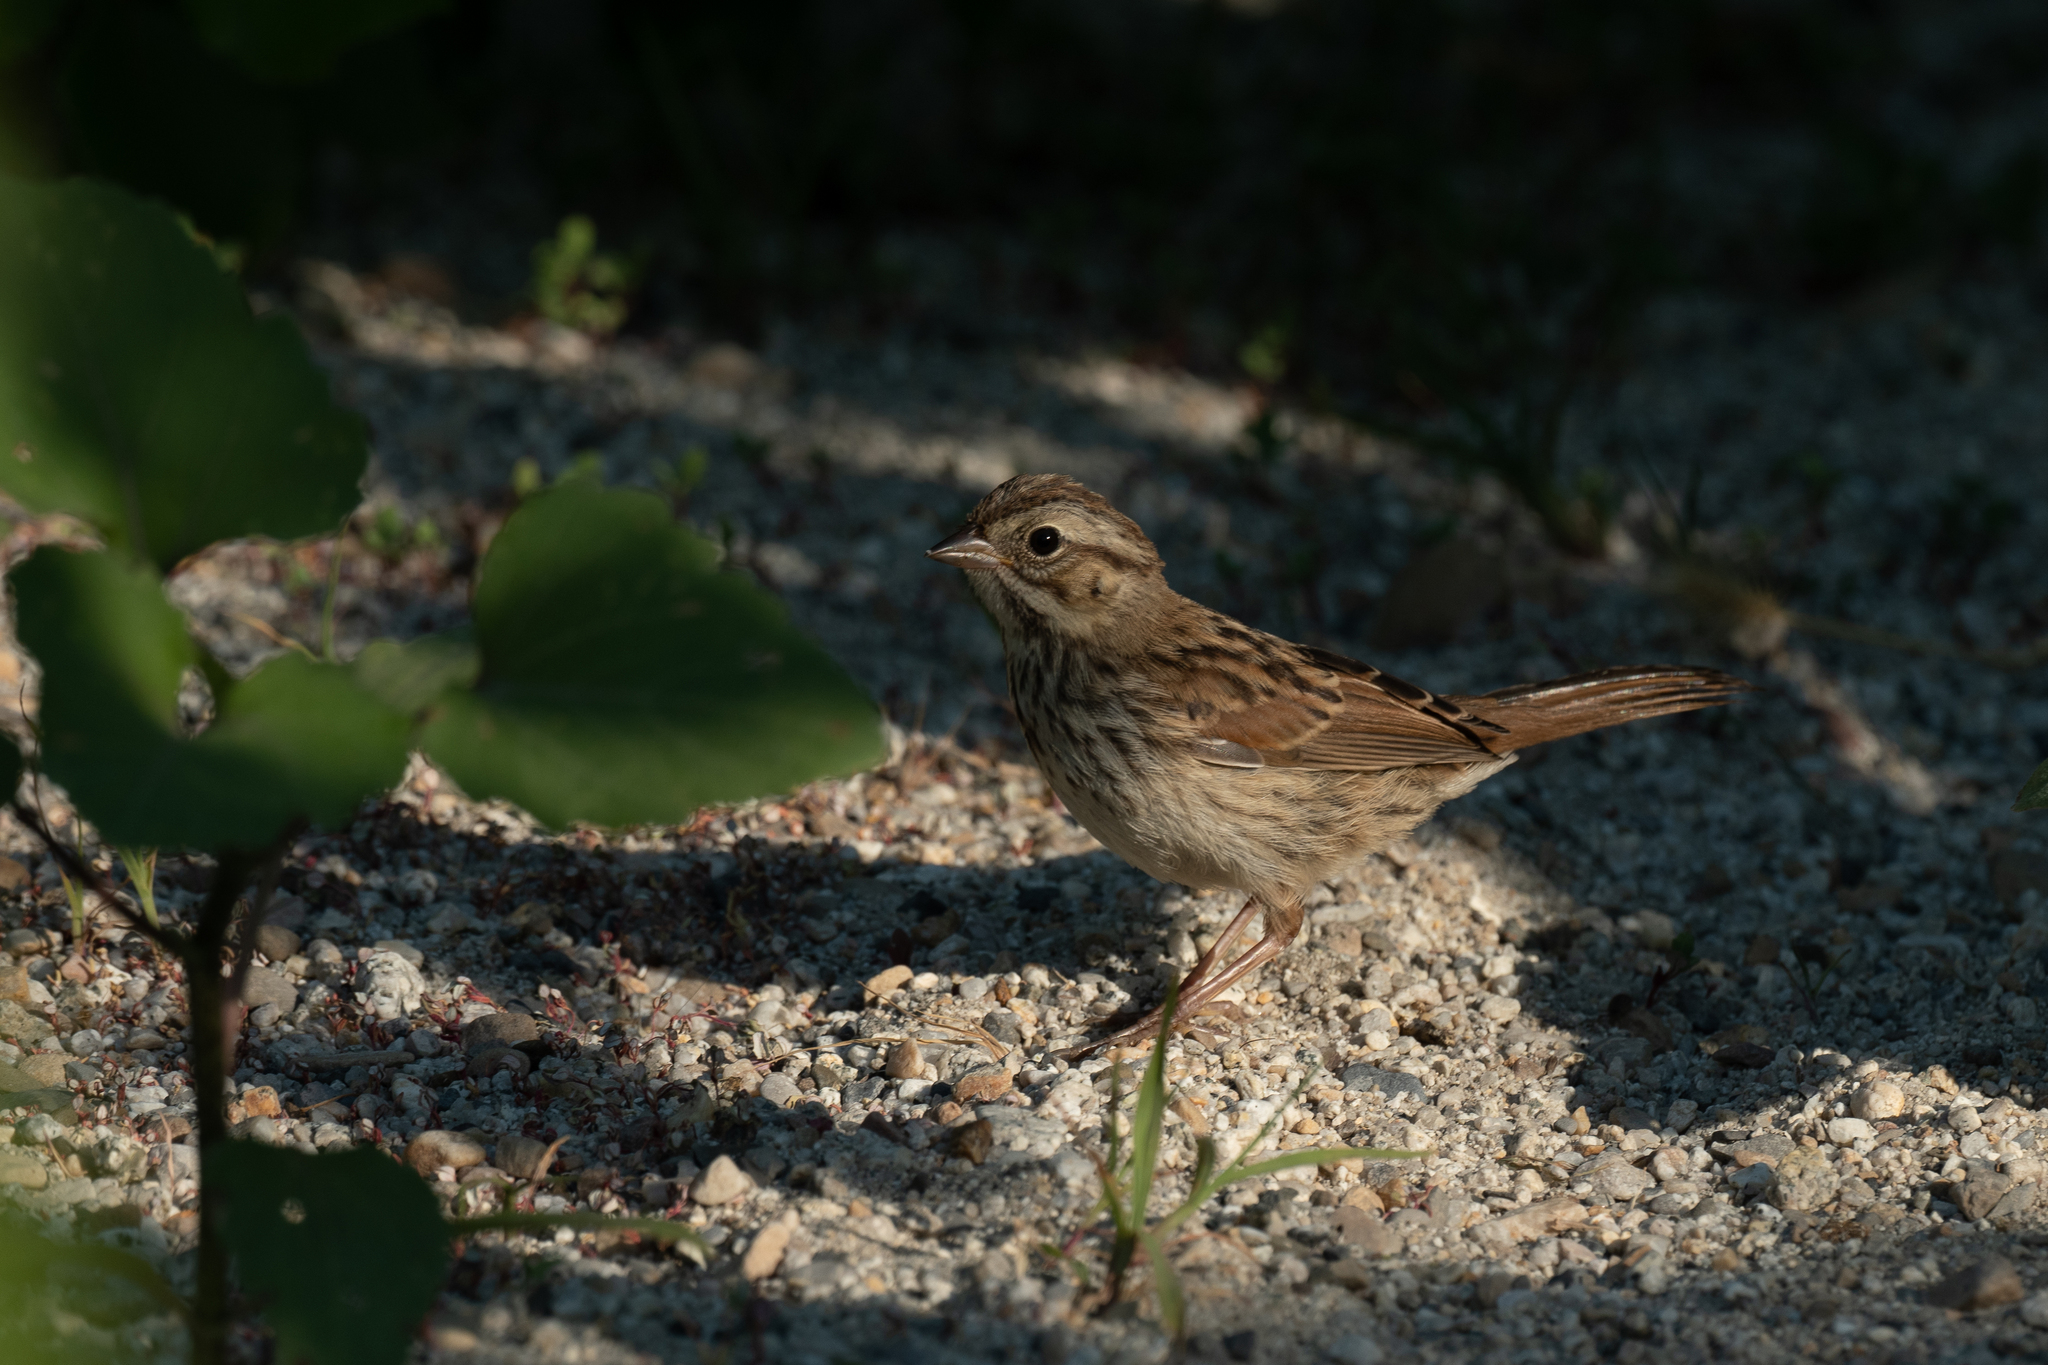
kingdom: Animalia
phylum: Chordata
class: Aves
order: Passeriformes
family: Passerellidae
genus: Melospiza
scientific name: Melospiza melodia
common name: Song sparrow
